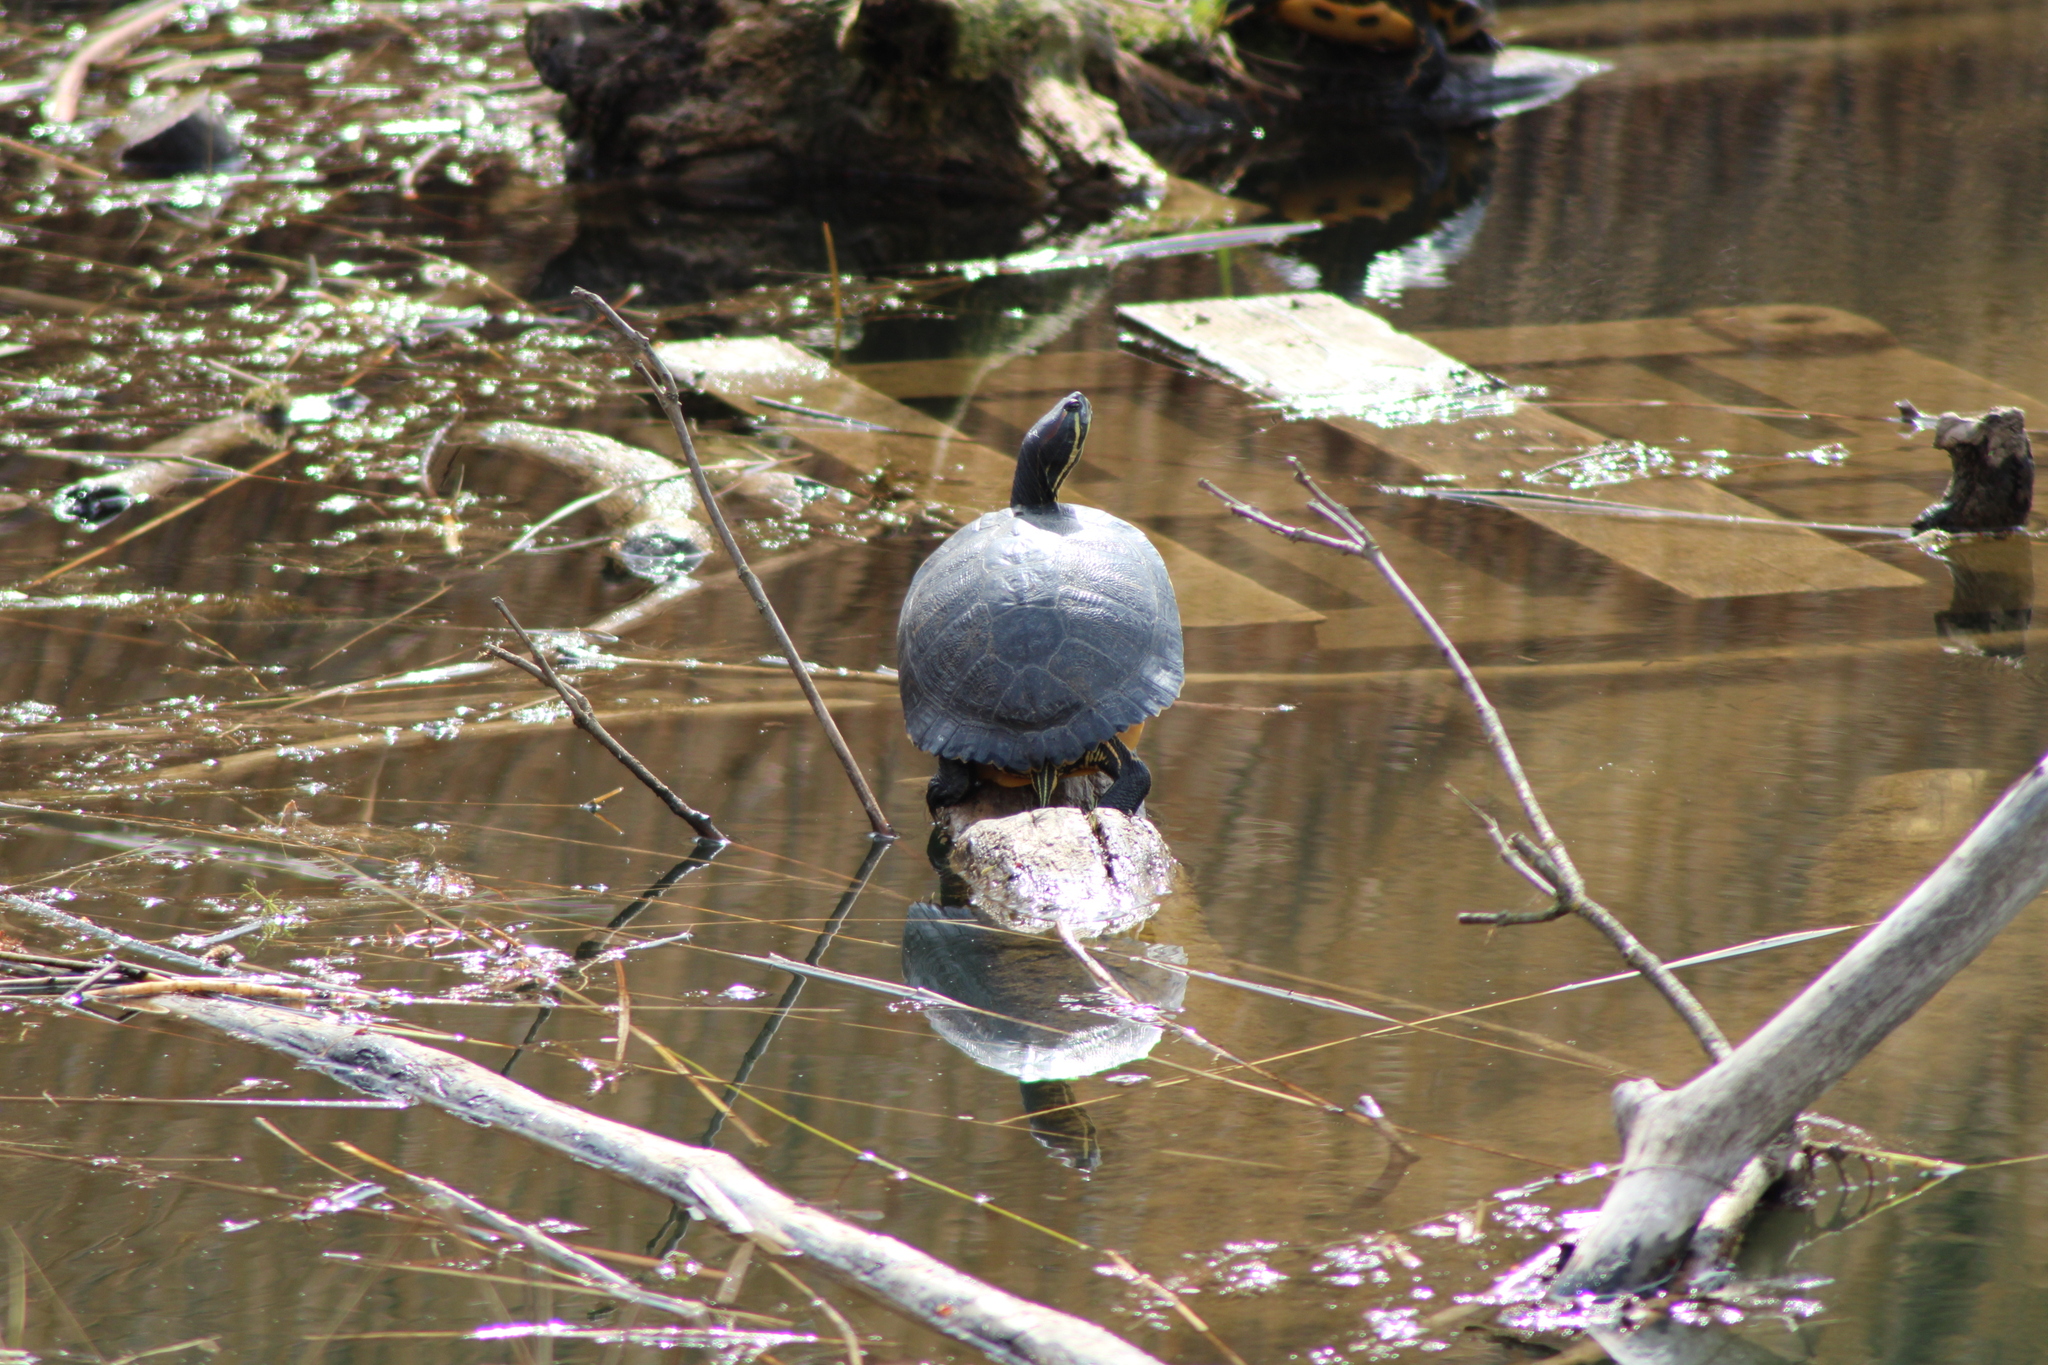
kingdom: Animalia
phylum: Chordata
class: Testudines
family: Emydidae
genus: Trachemys
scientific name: Trachemys scripta
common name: Slider
